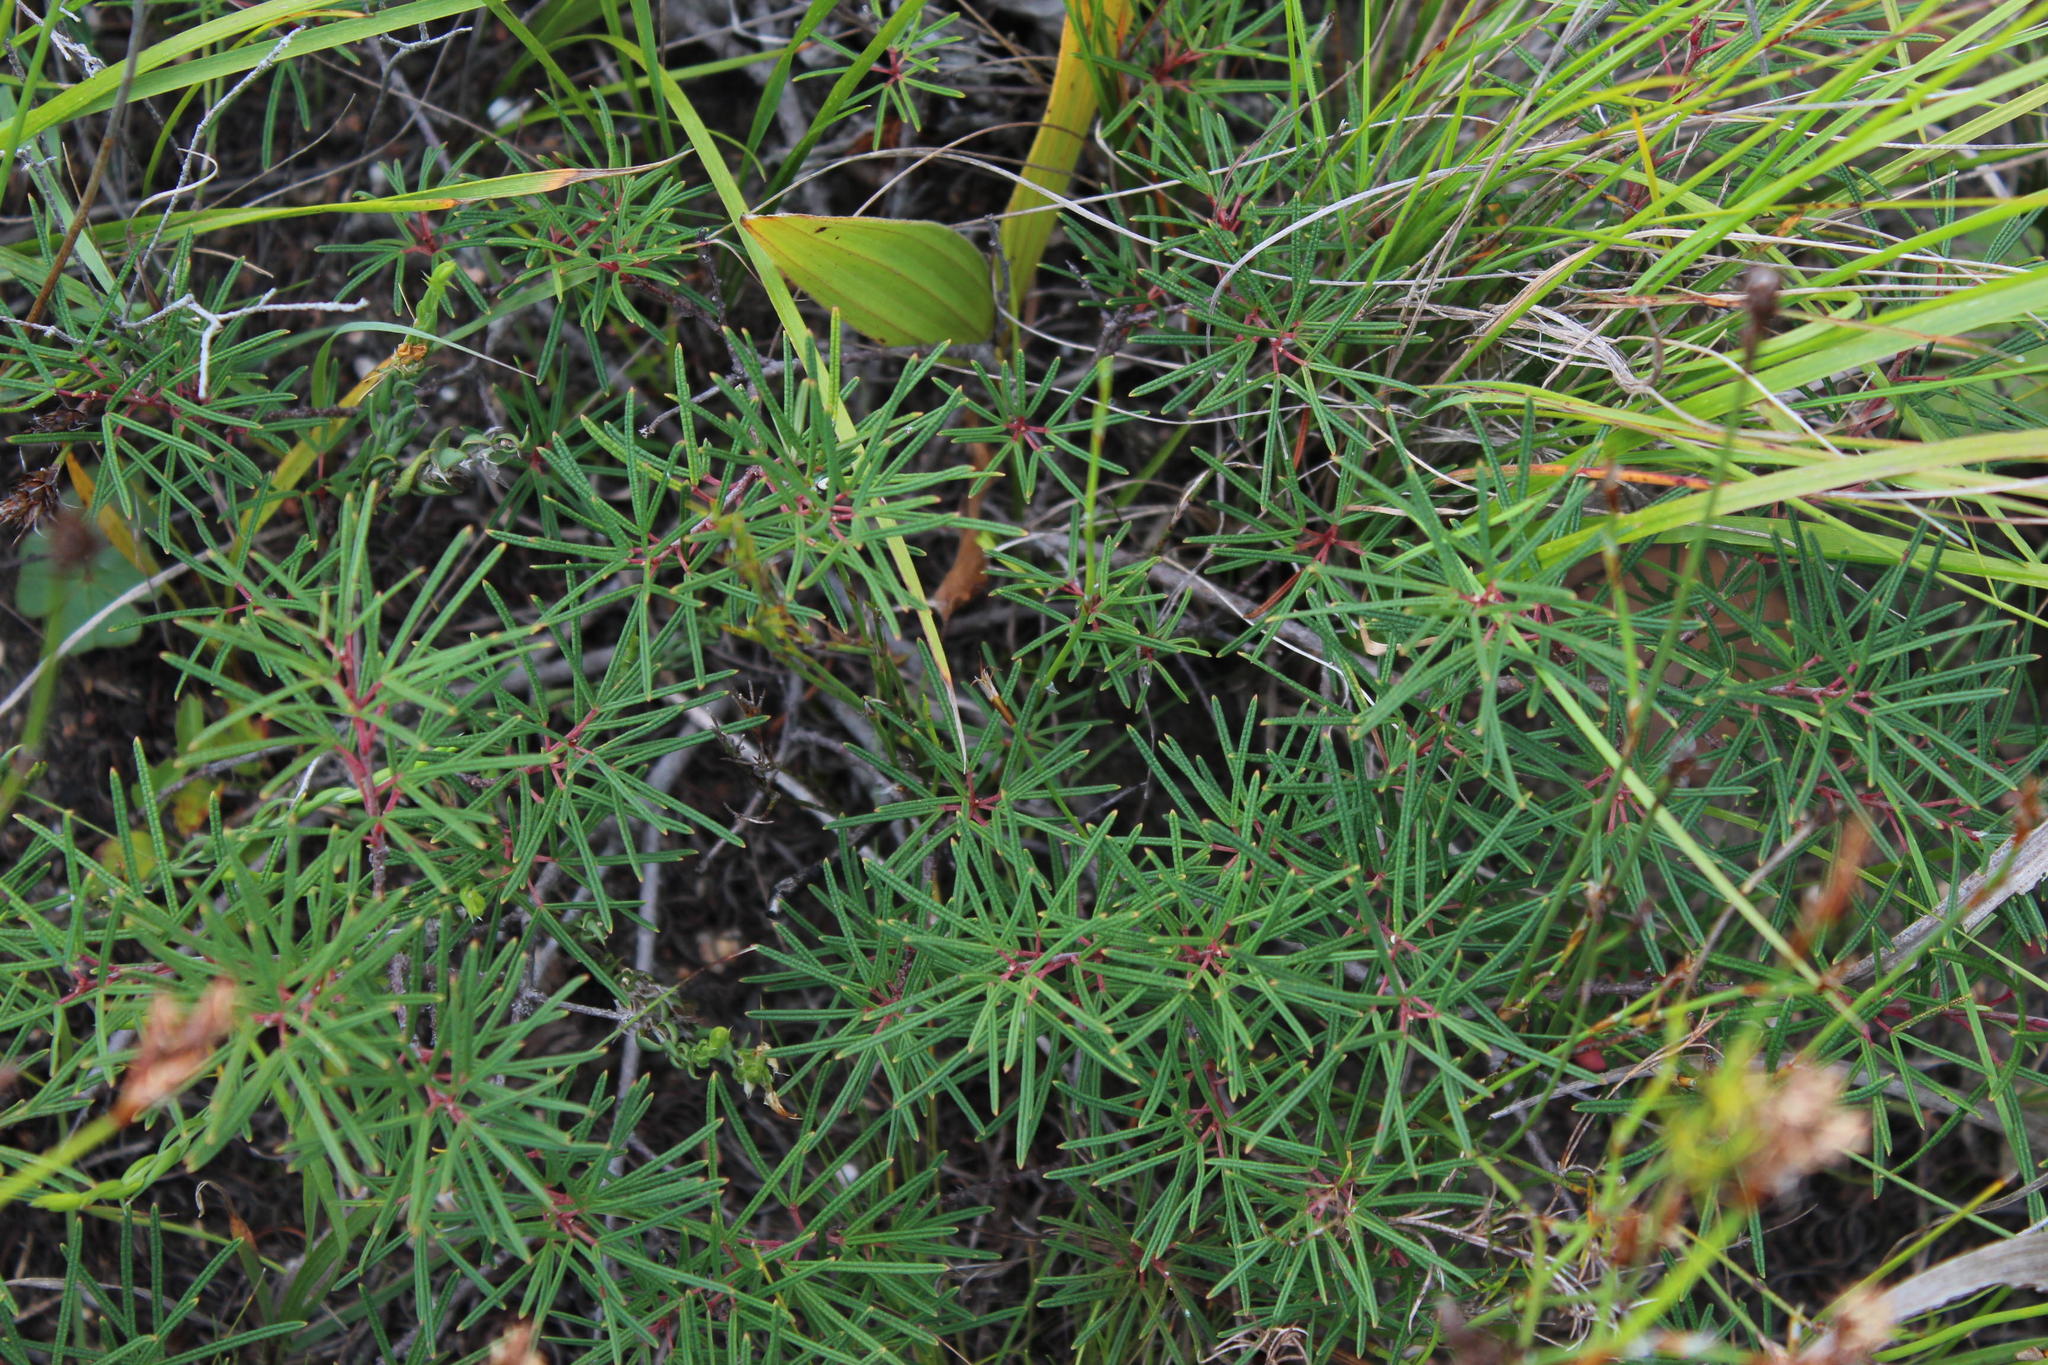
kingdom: Plantae
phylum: Tracheophyta
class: Magnoliopsida
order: Sapindales
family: Anacardiaceae
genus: Searsia
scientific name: Searsia rosmarinifolia
